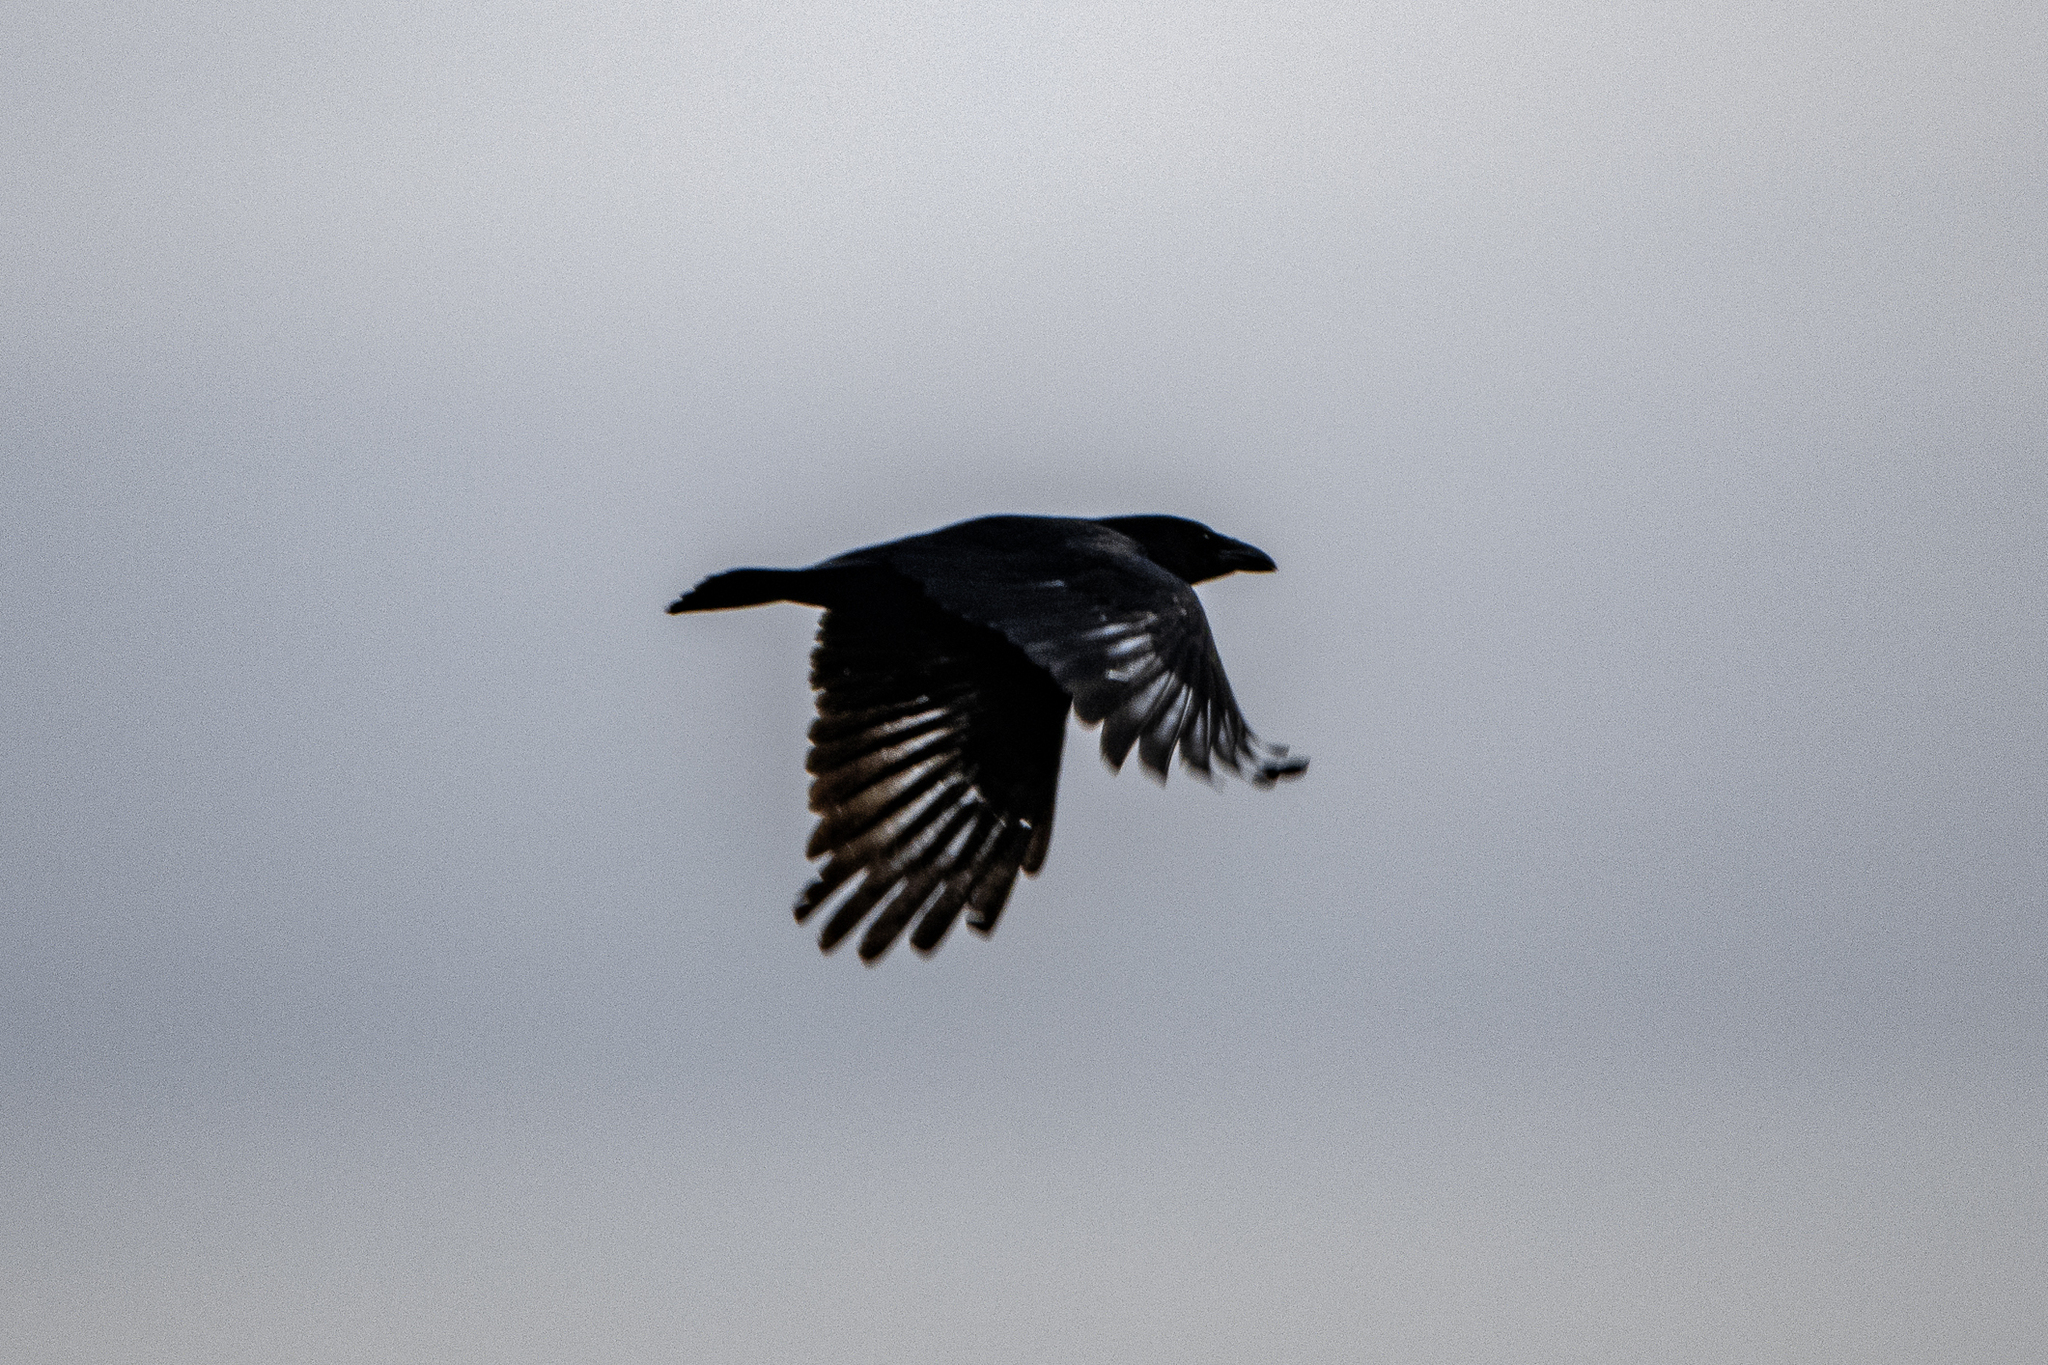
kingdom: Animalia
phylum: Chordata
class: Aves
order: Passeriformes
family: Corvidae
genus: Corvus
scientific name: Corvus corone
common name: Carrion crow
